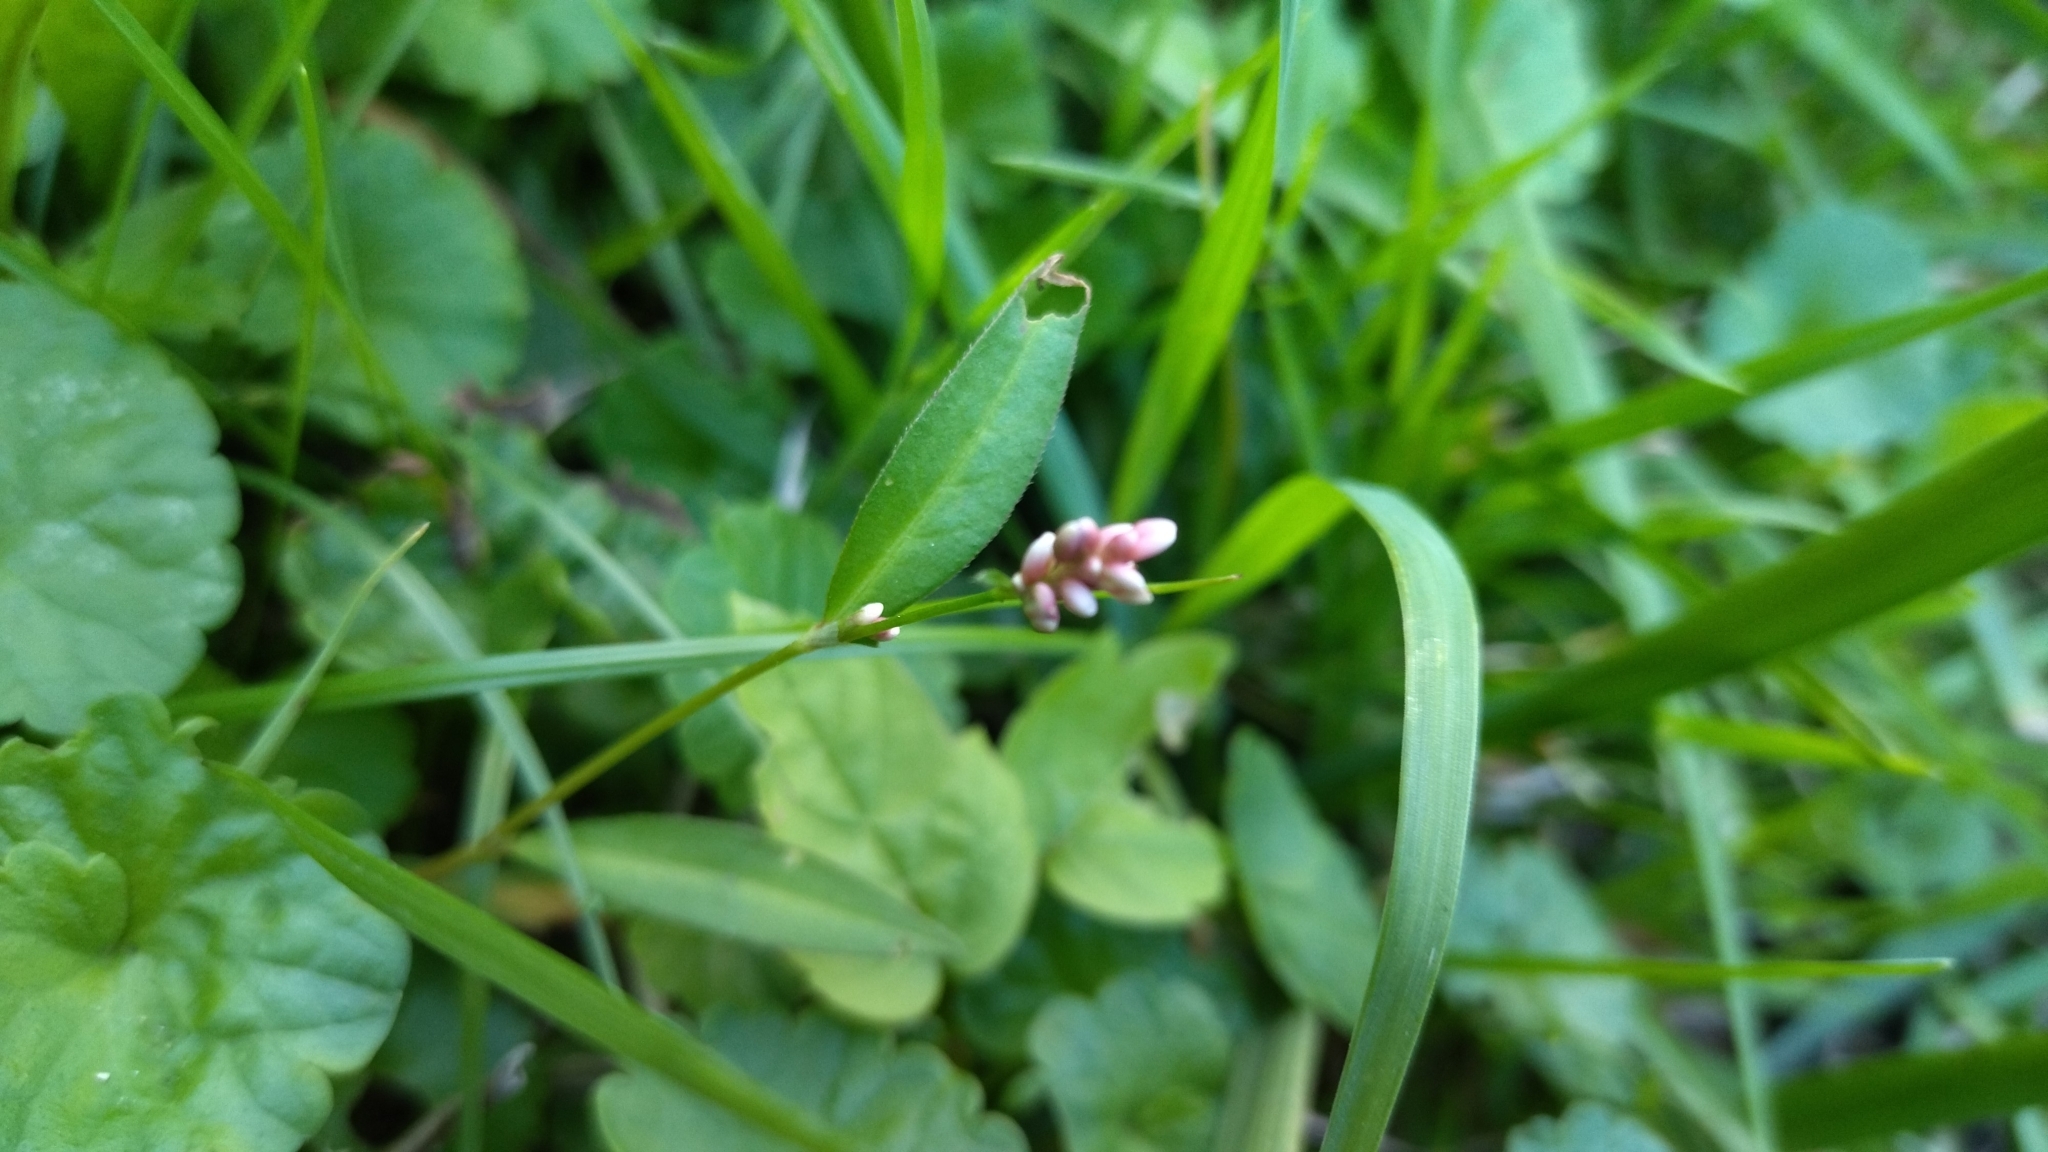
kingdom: Plantae
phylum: Tracheophyta
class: Magnoliopsida
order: Caryophyllales
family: Polygonaceae
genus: Persicaria
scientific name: Persicaria minor
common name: Small water-pepper
